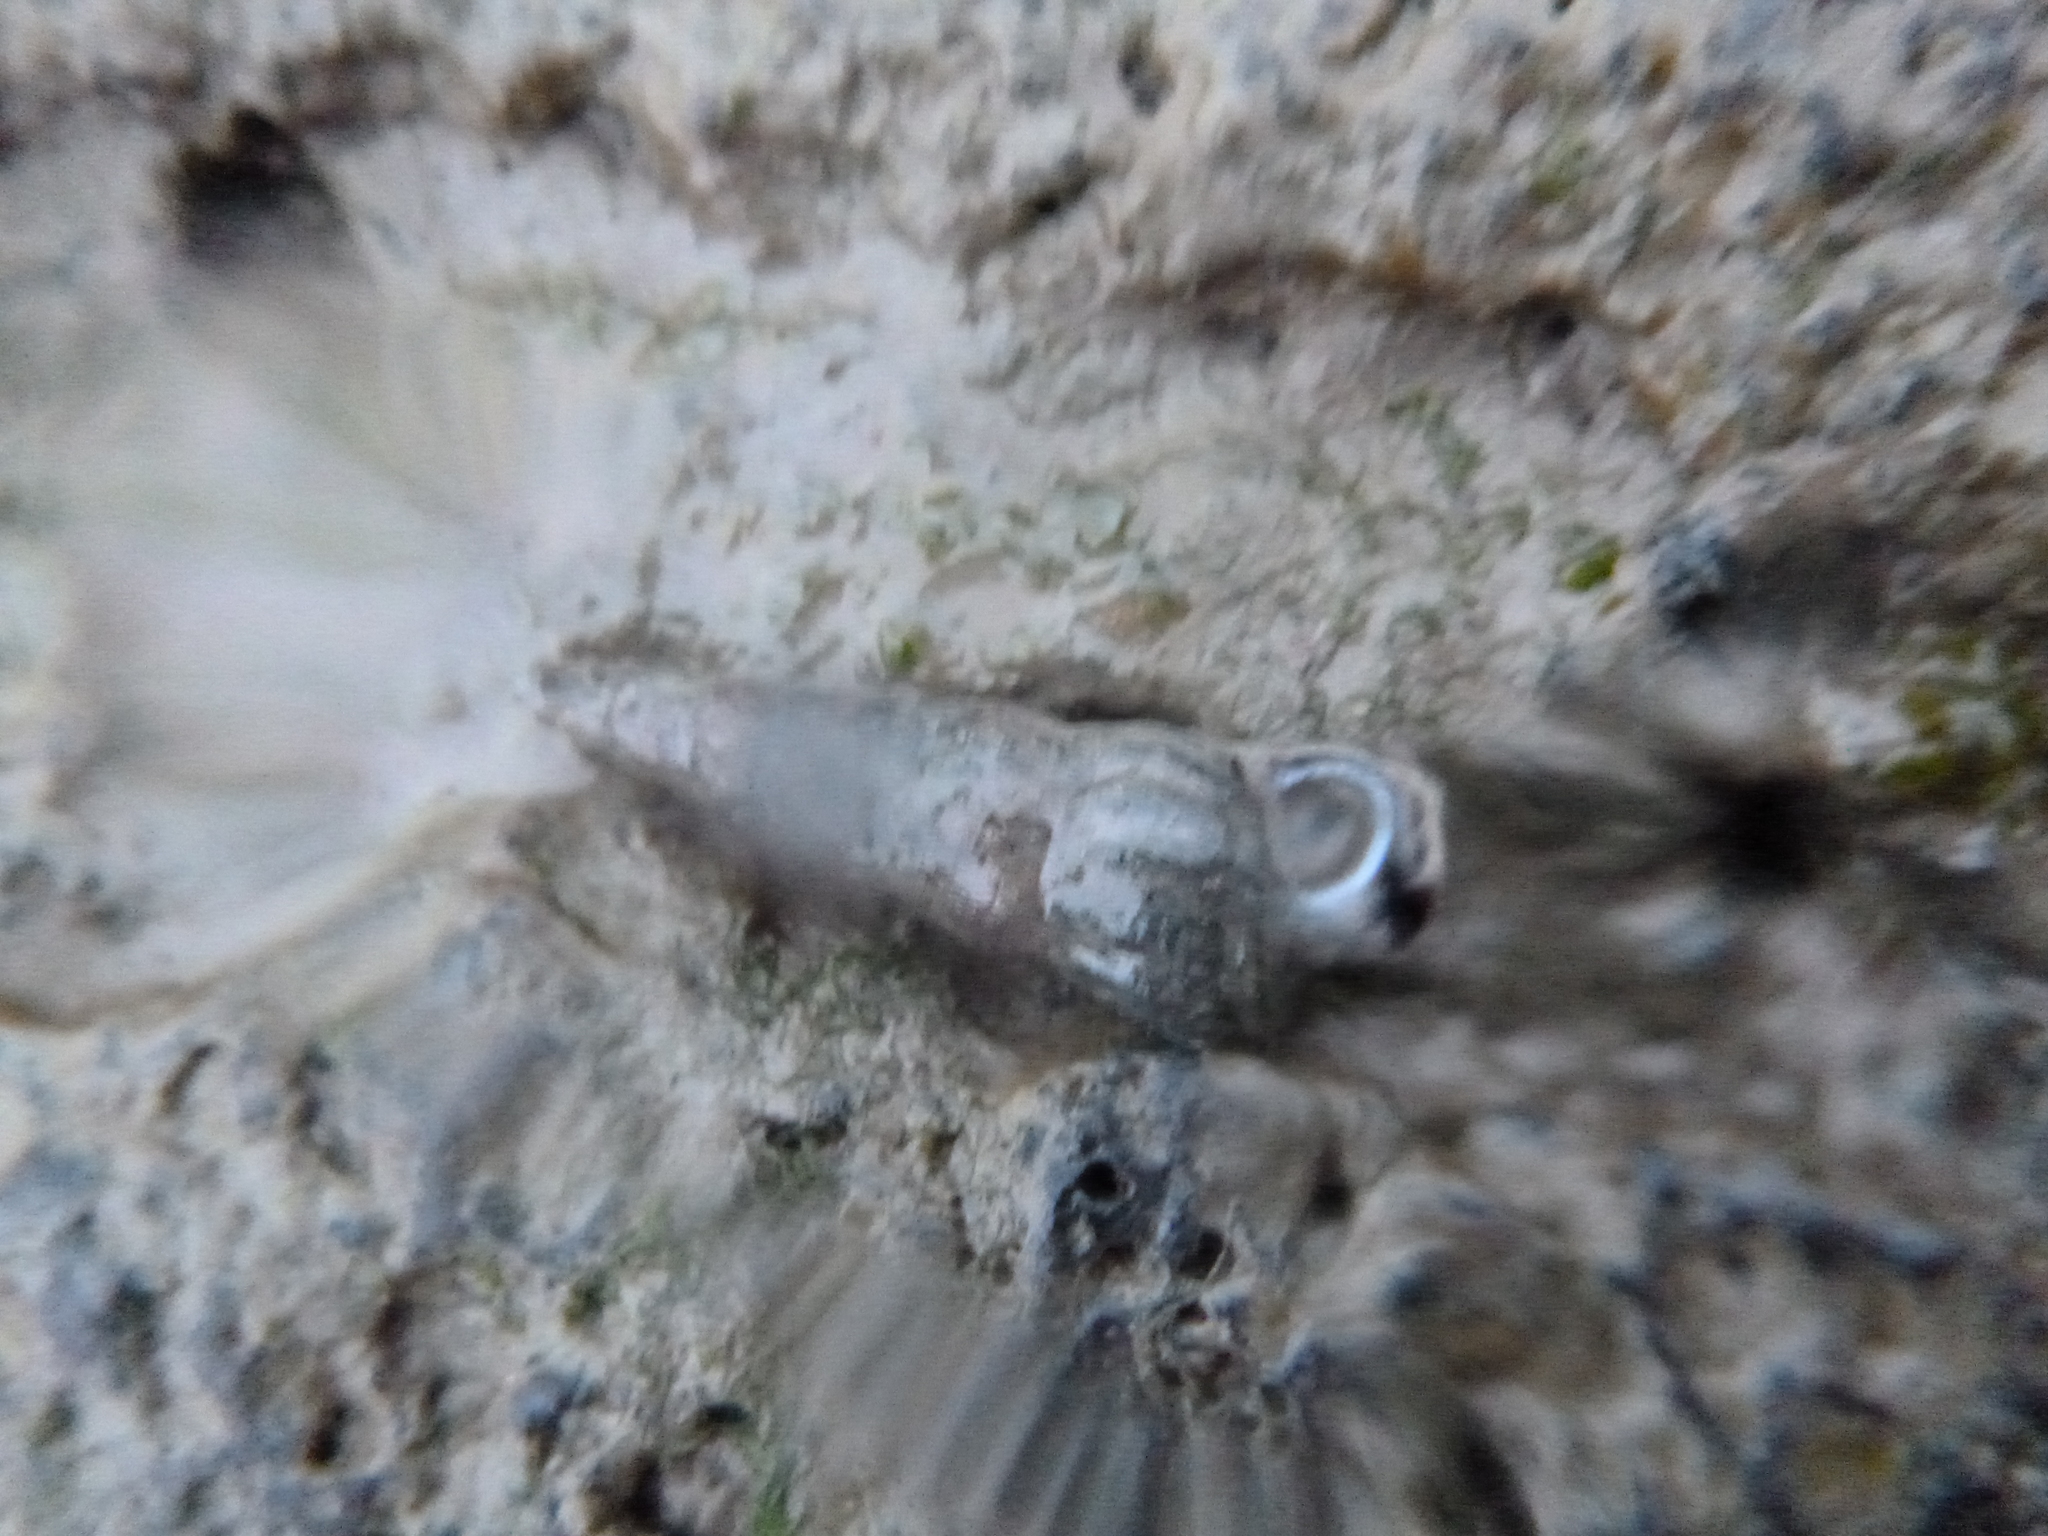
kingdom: Animalia
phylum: Mollusca
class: Gastropoda
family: Batillariidae
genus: Zeacumantus
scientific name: Zeacumantus lutulentus
